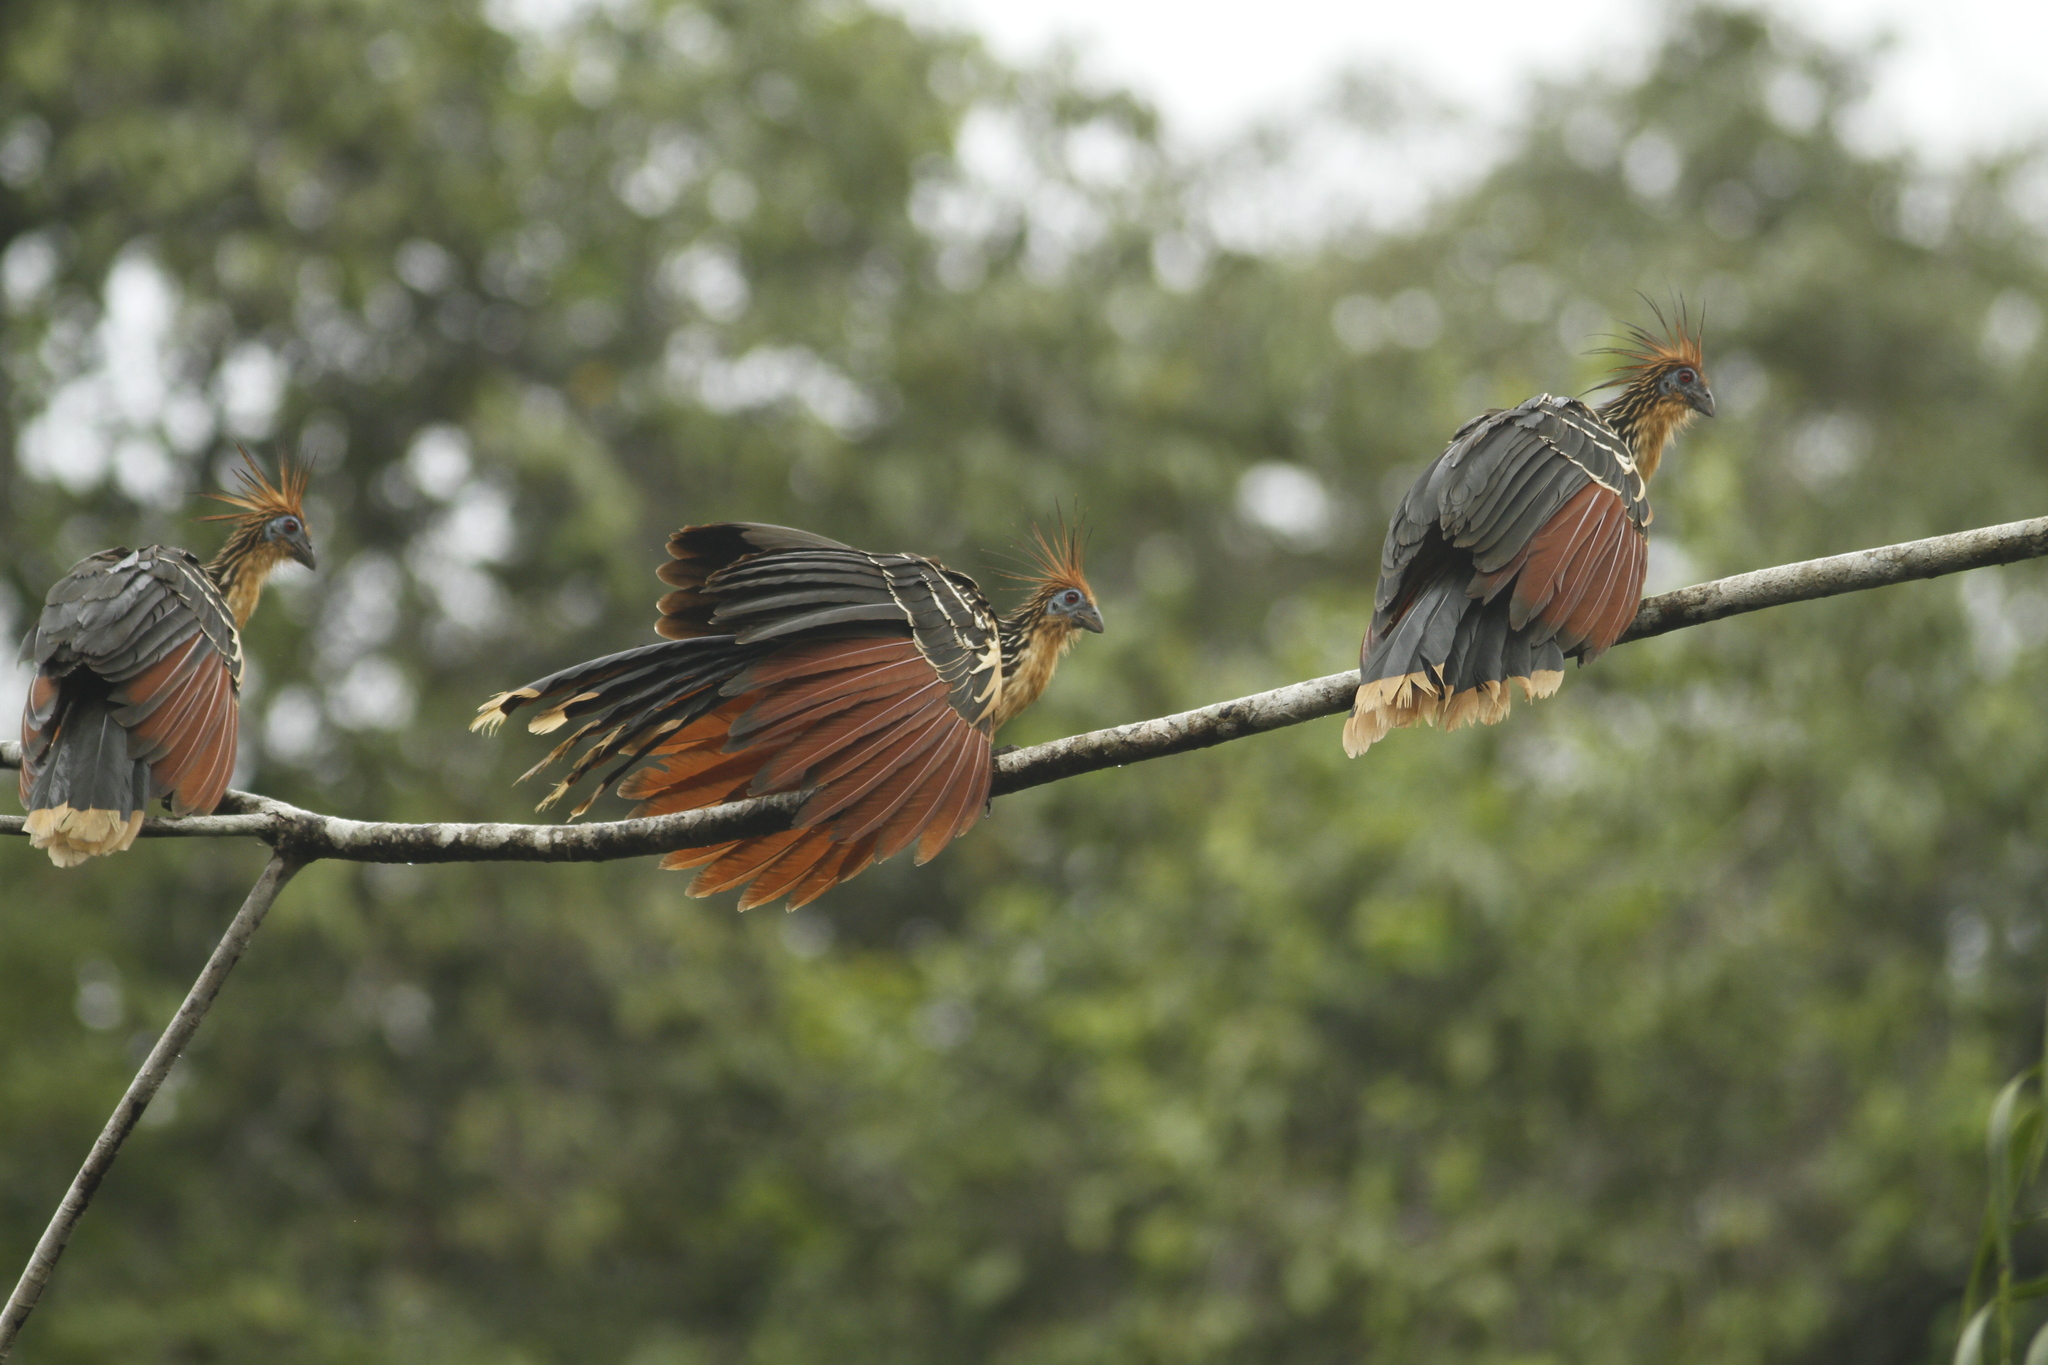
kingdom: Animalia
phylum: Chordata
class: Aves
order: Opisthocomiformes
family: Opisthocomidae
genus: Opisthocomus
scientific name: Opisthocomus hoazin
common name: Hoatzin
